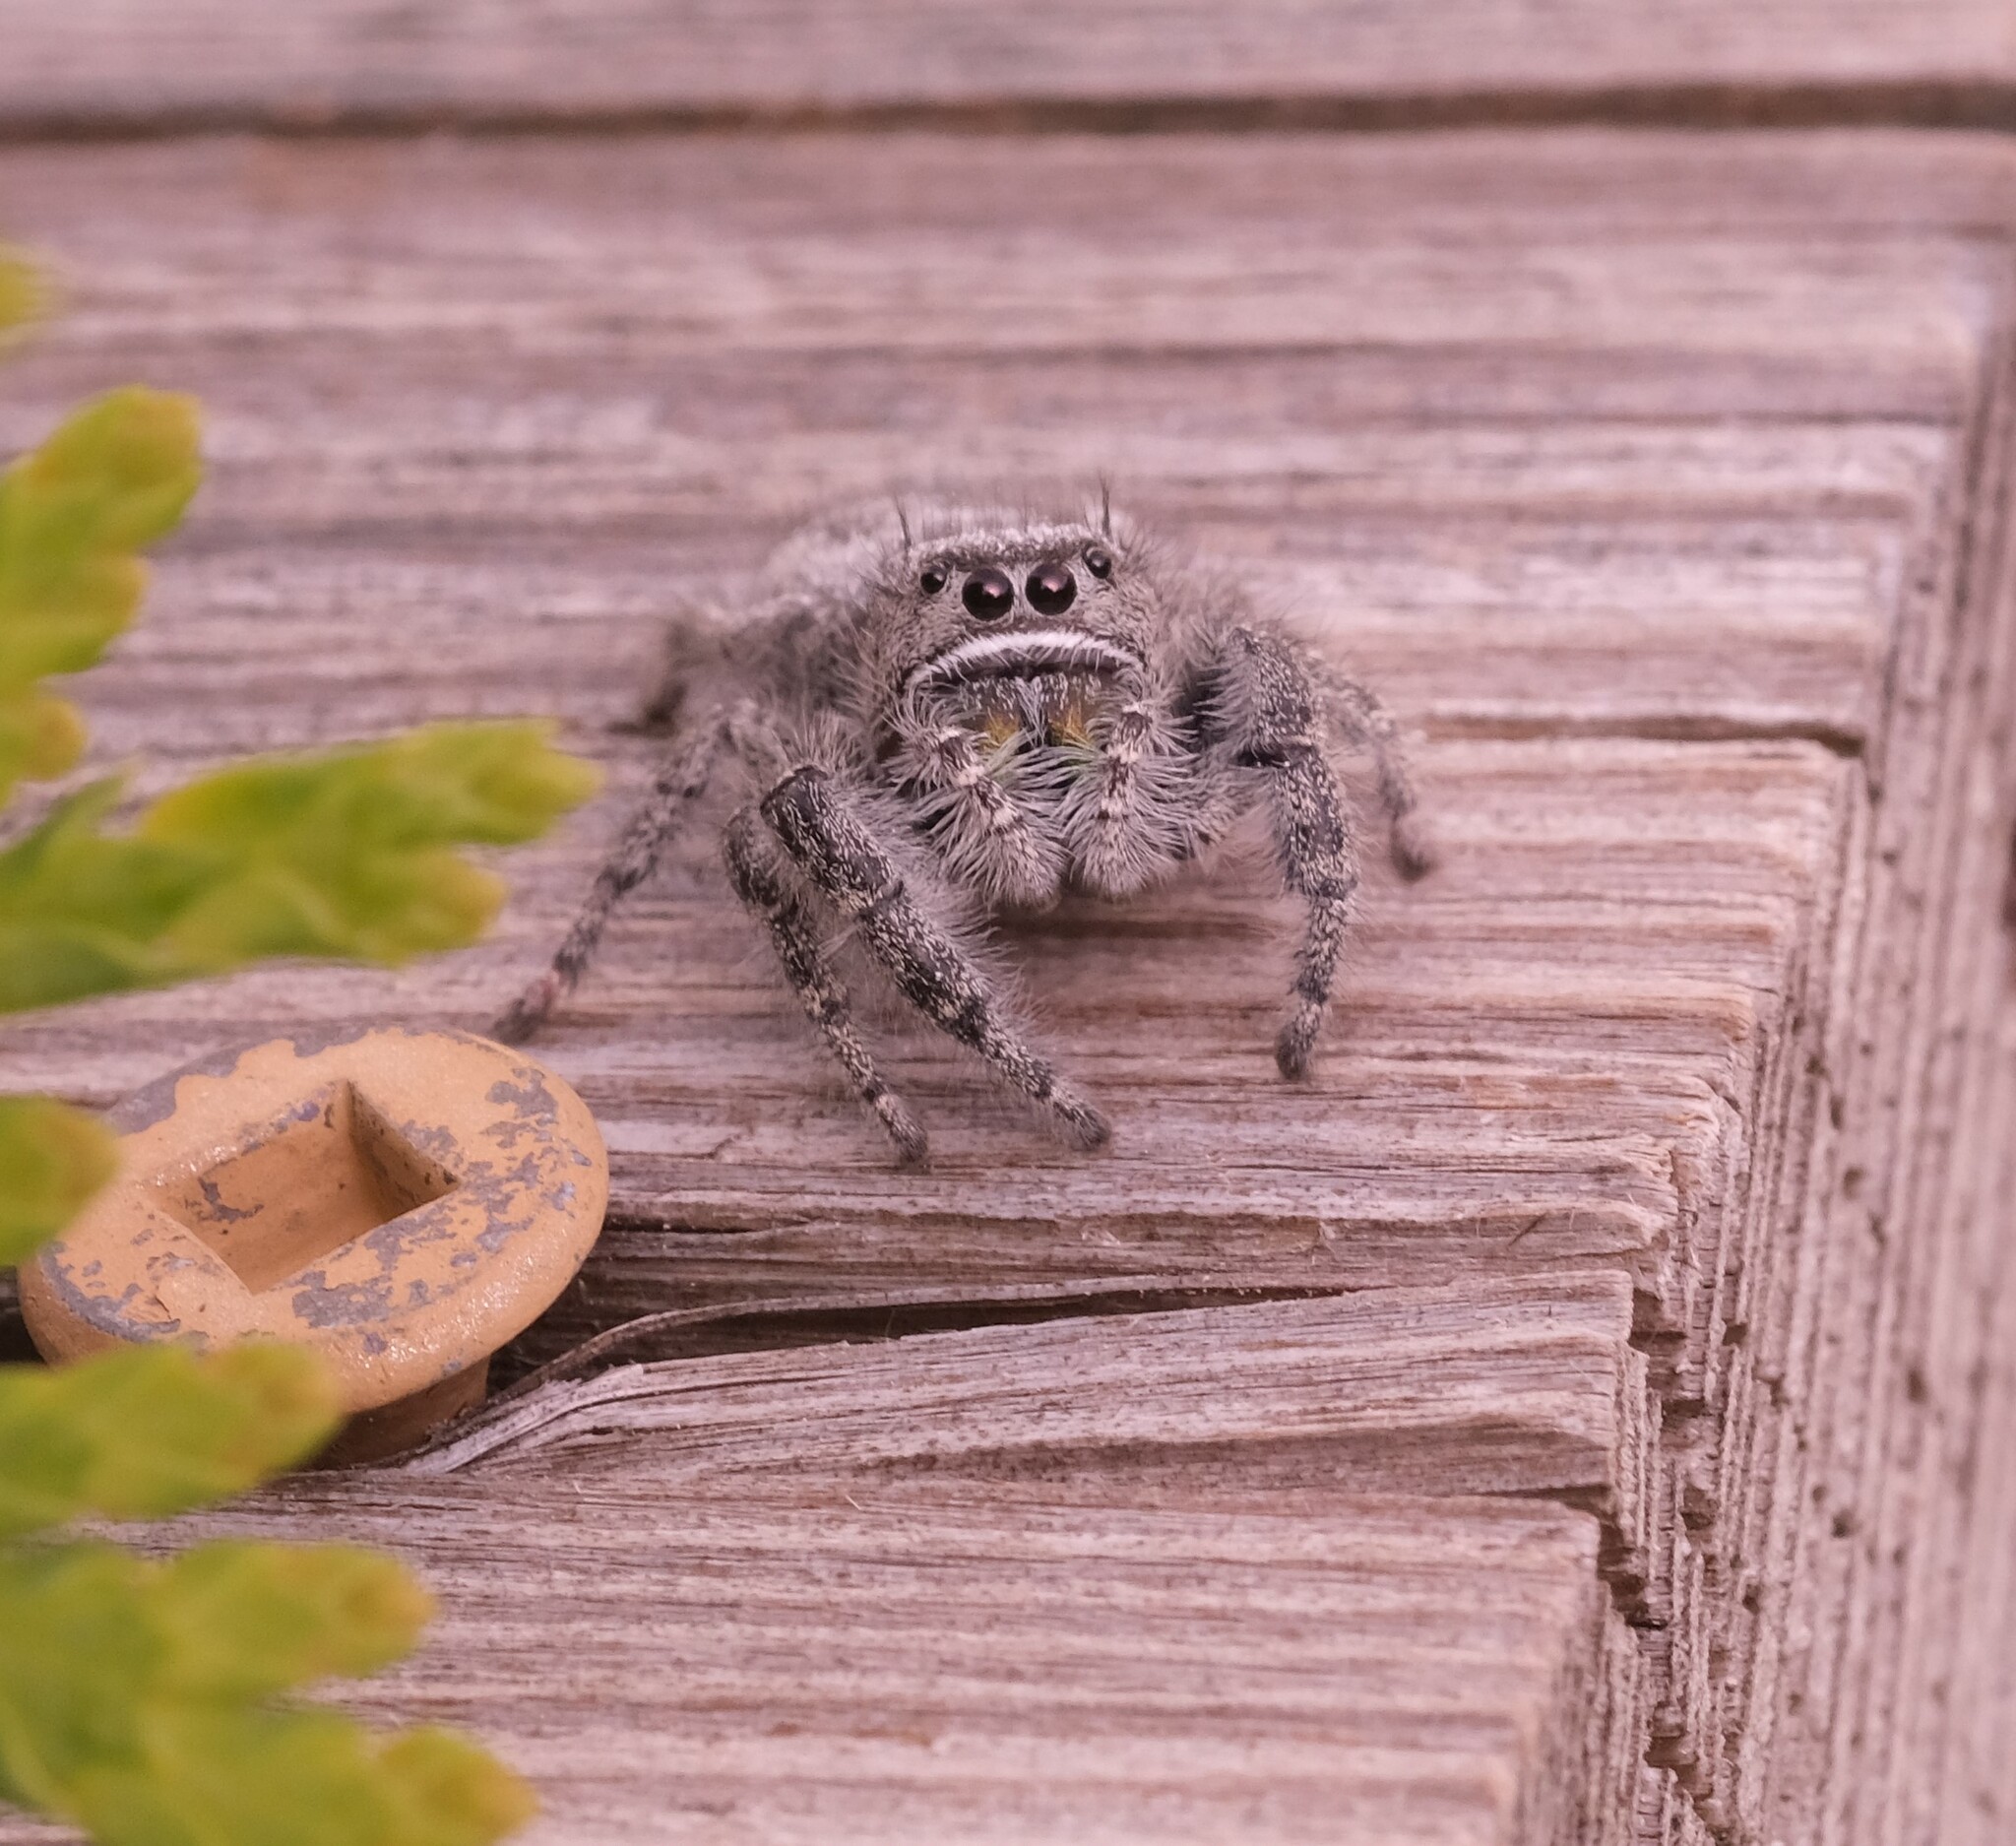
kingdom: Animalia
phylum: Arthropoda
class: Arachnida
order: Araneae
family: Salticidae
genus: Phidippus
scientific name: Phidippus purpuratus
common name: Marbled purple jumping spider
